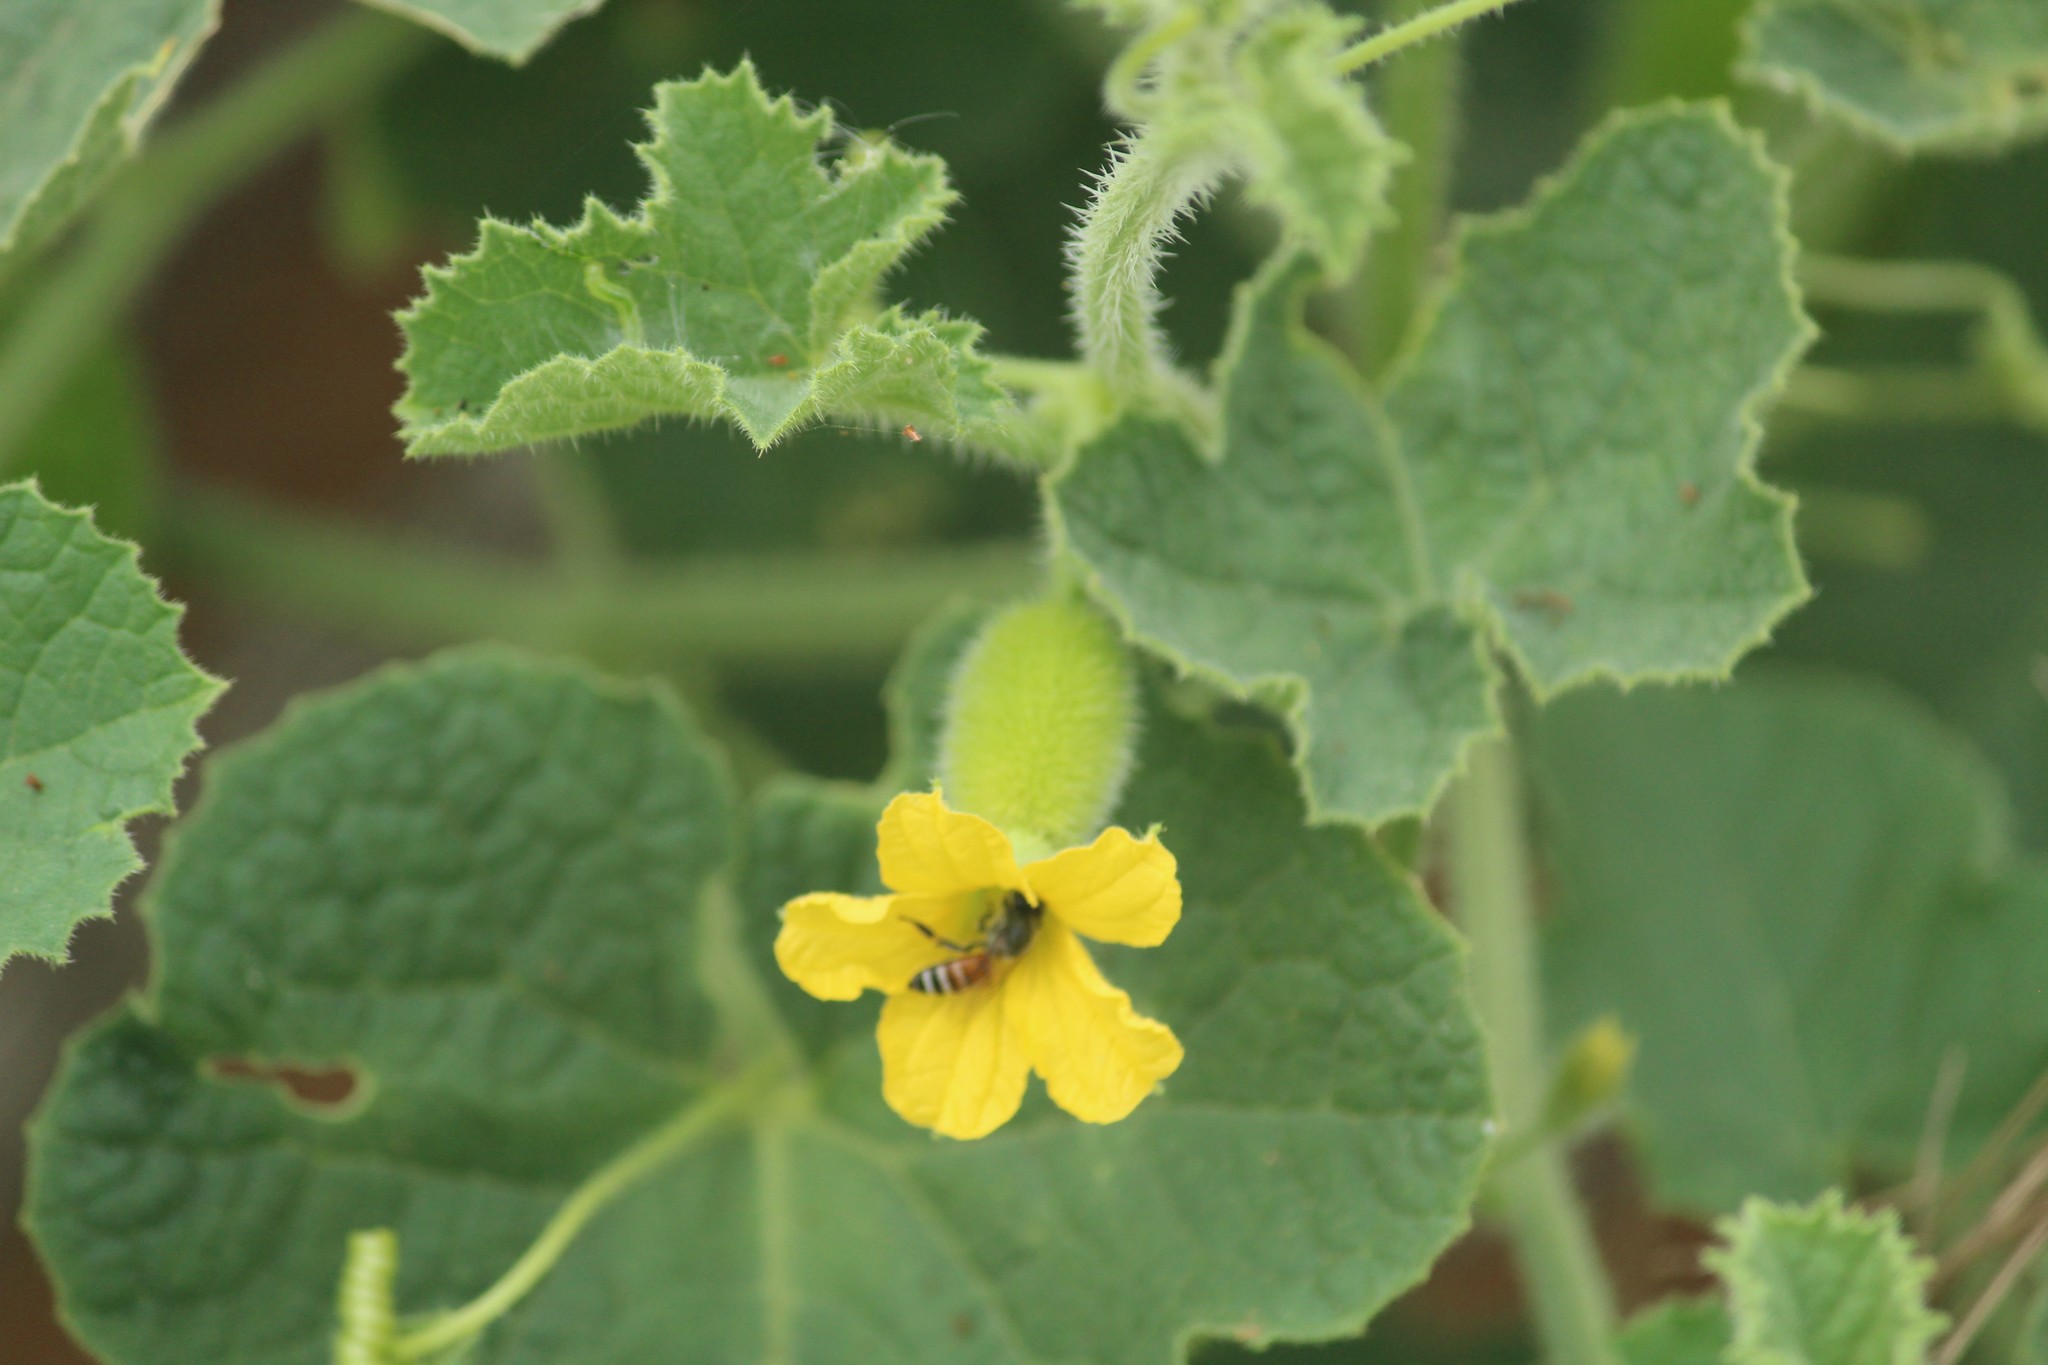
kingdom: Plantae
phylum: Tracheophyta
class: Magnoliopsida
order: Cucurbitales
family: Cucurbitaceae
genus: Cucumis
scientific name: Cucumis dipsaceus
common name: Hedgehog gourd
